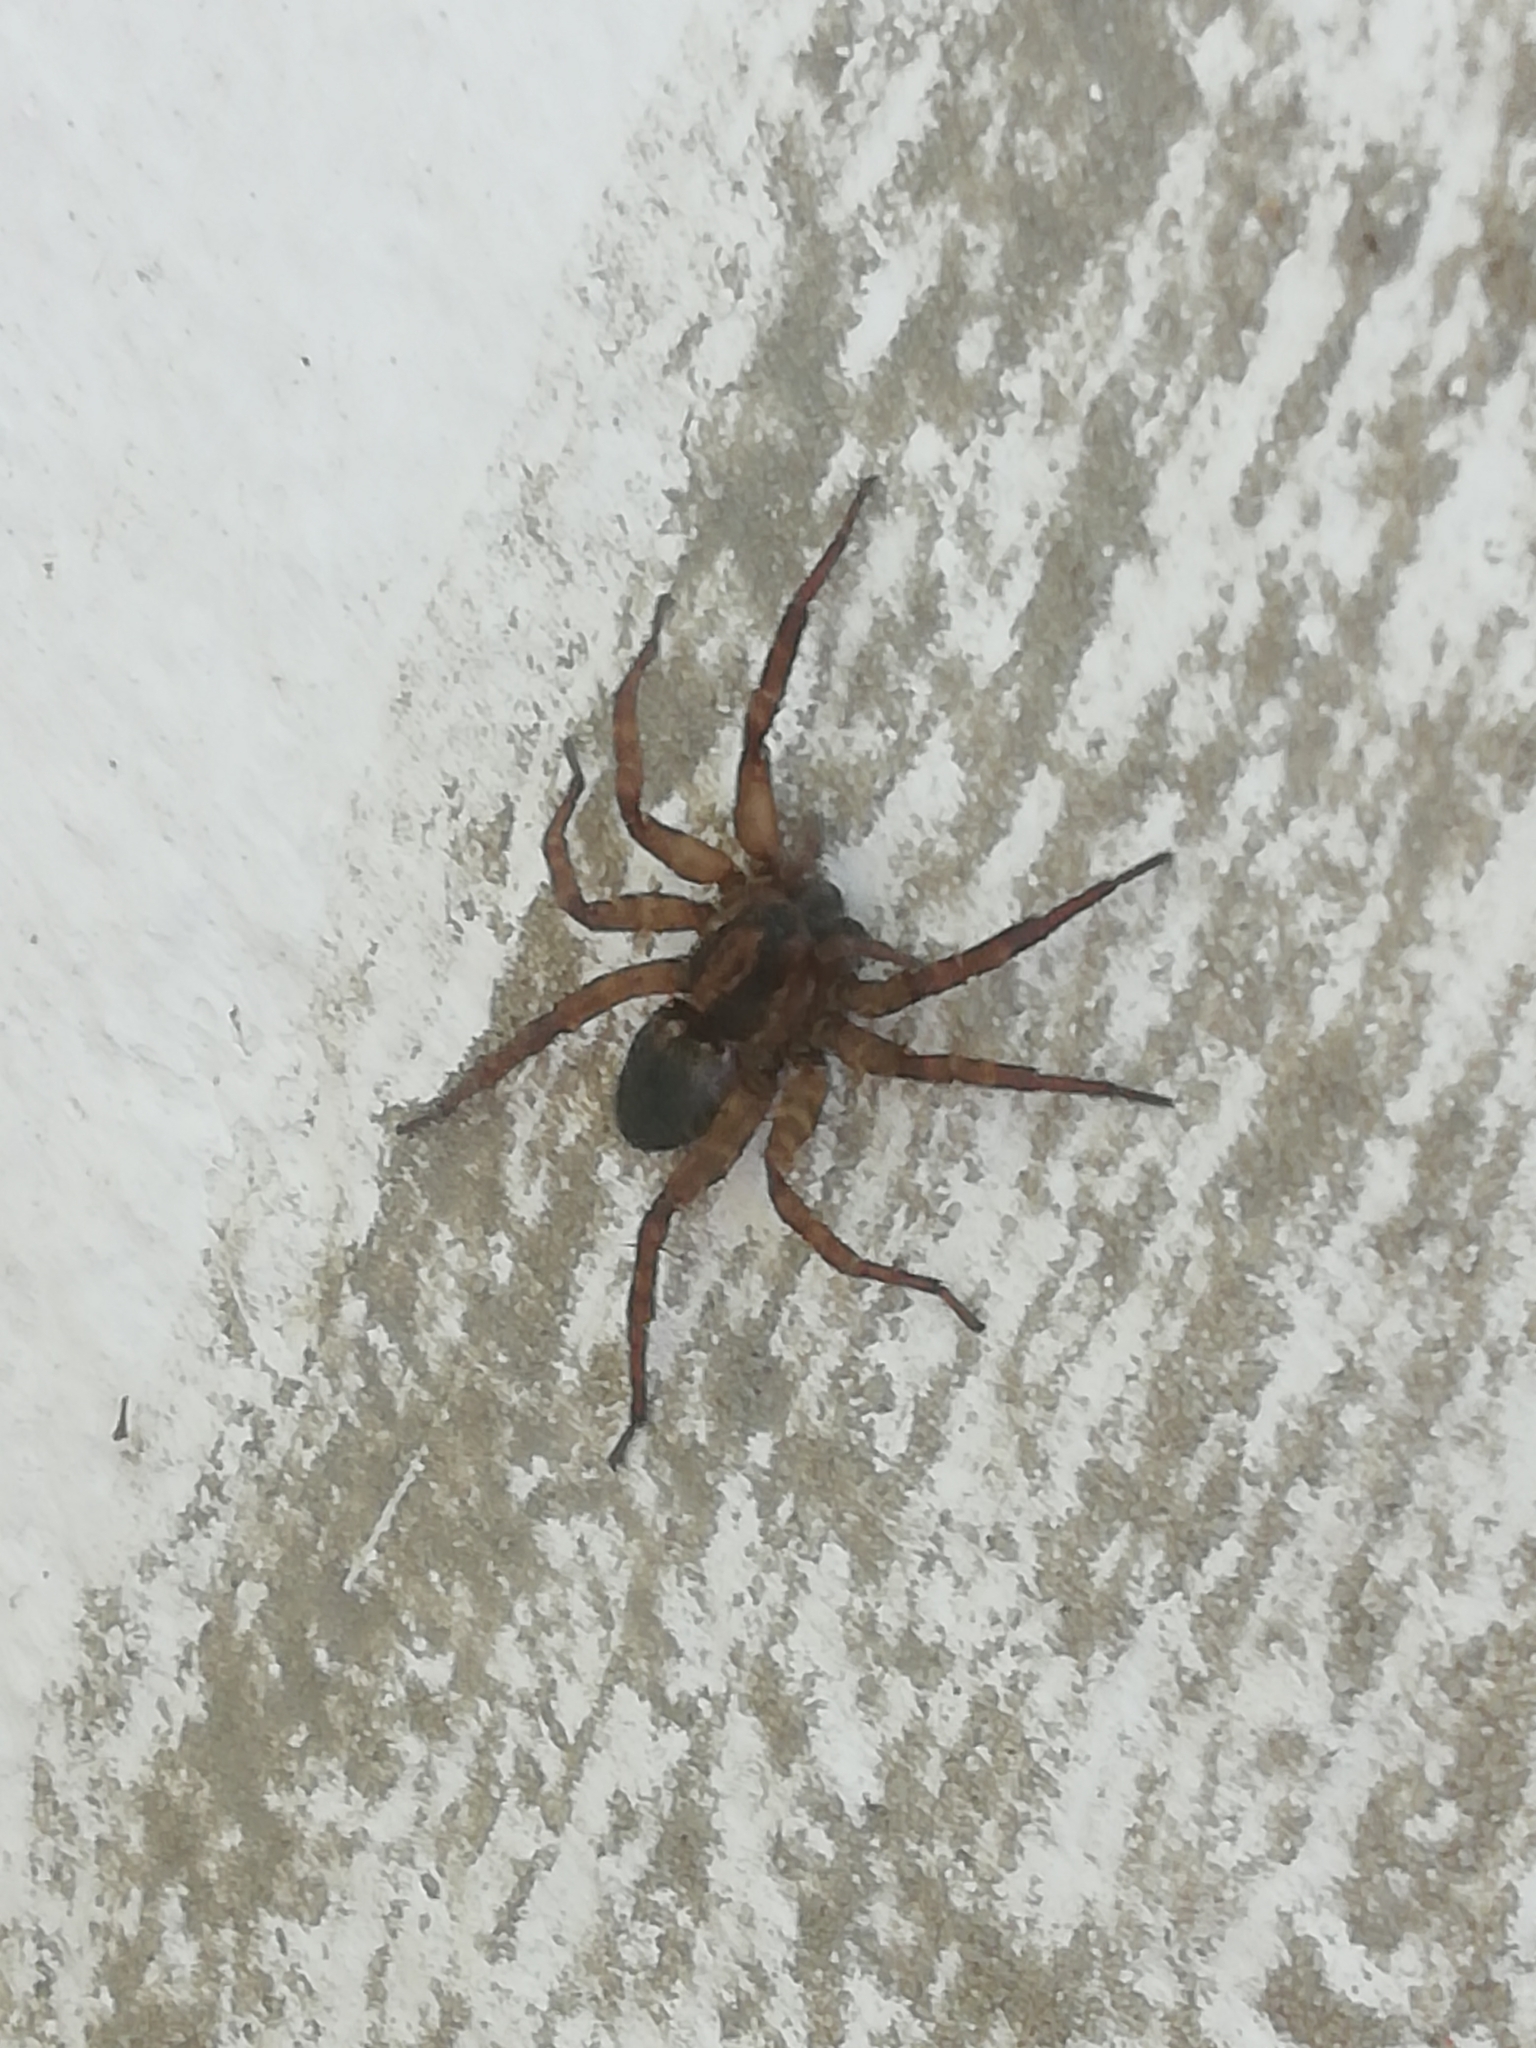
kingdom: Animalia
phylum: Arthropoda
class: Arachnida
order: Araneae
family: Lycosidae
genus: Trochosa
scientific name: Trochosa
